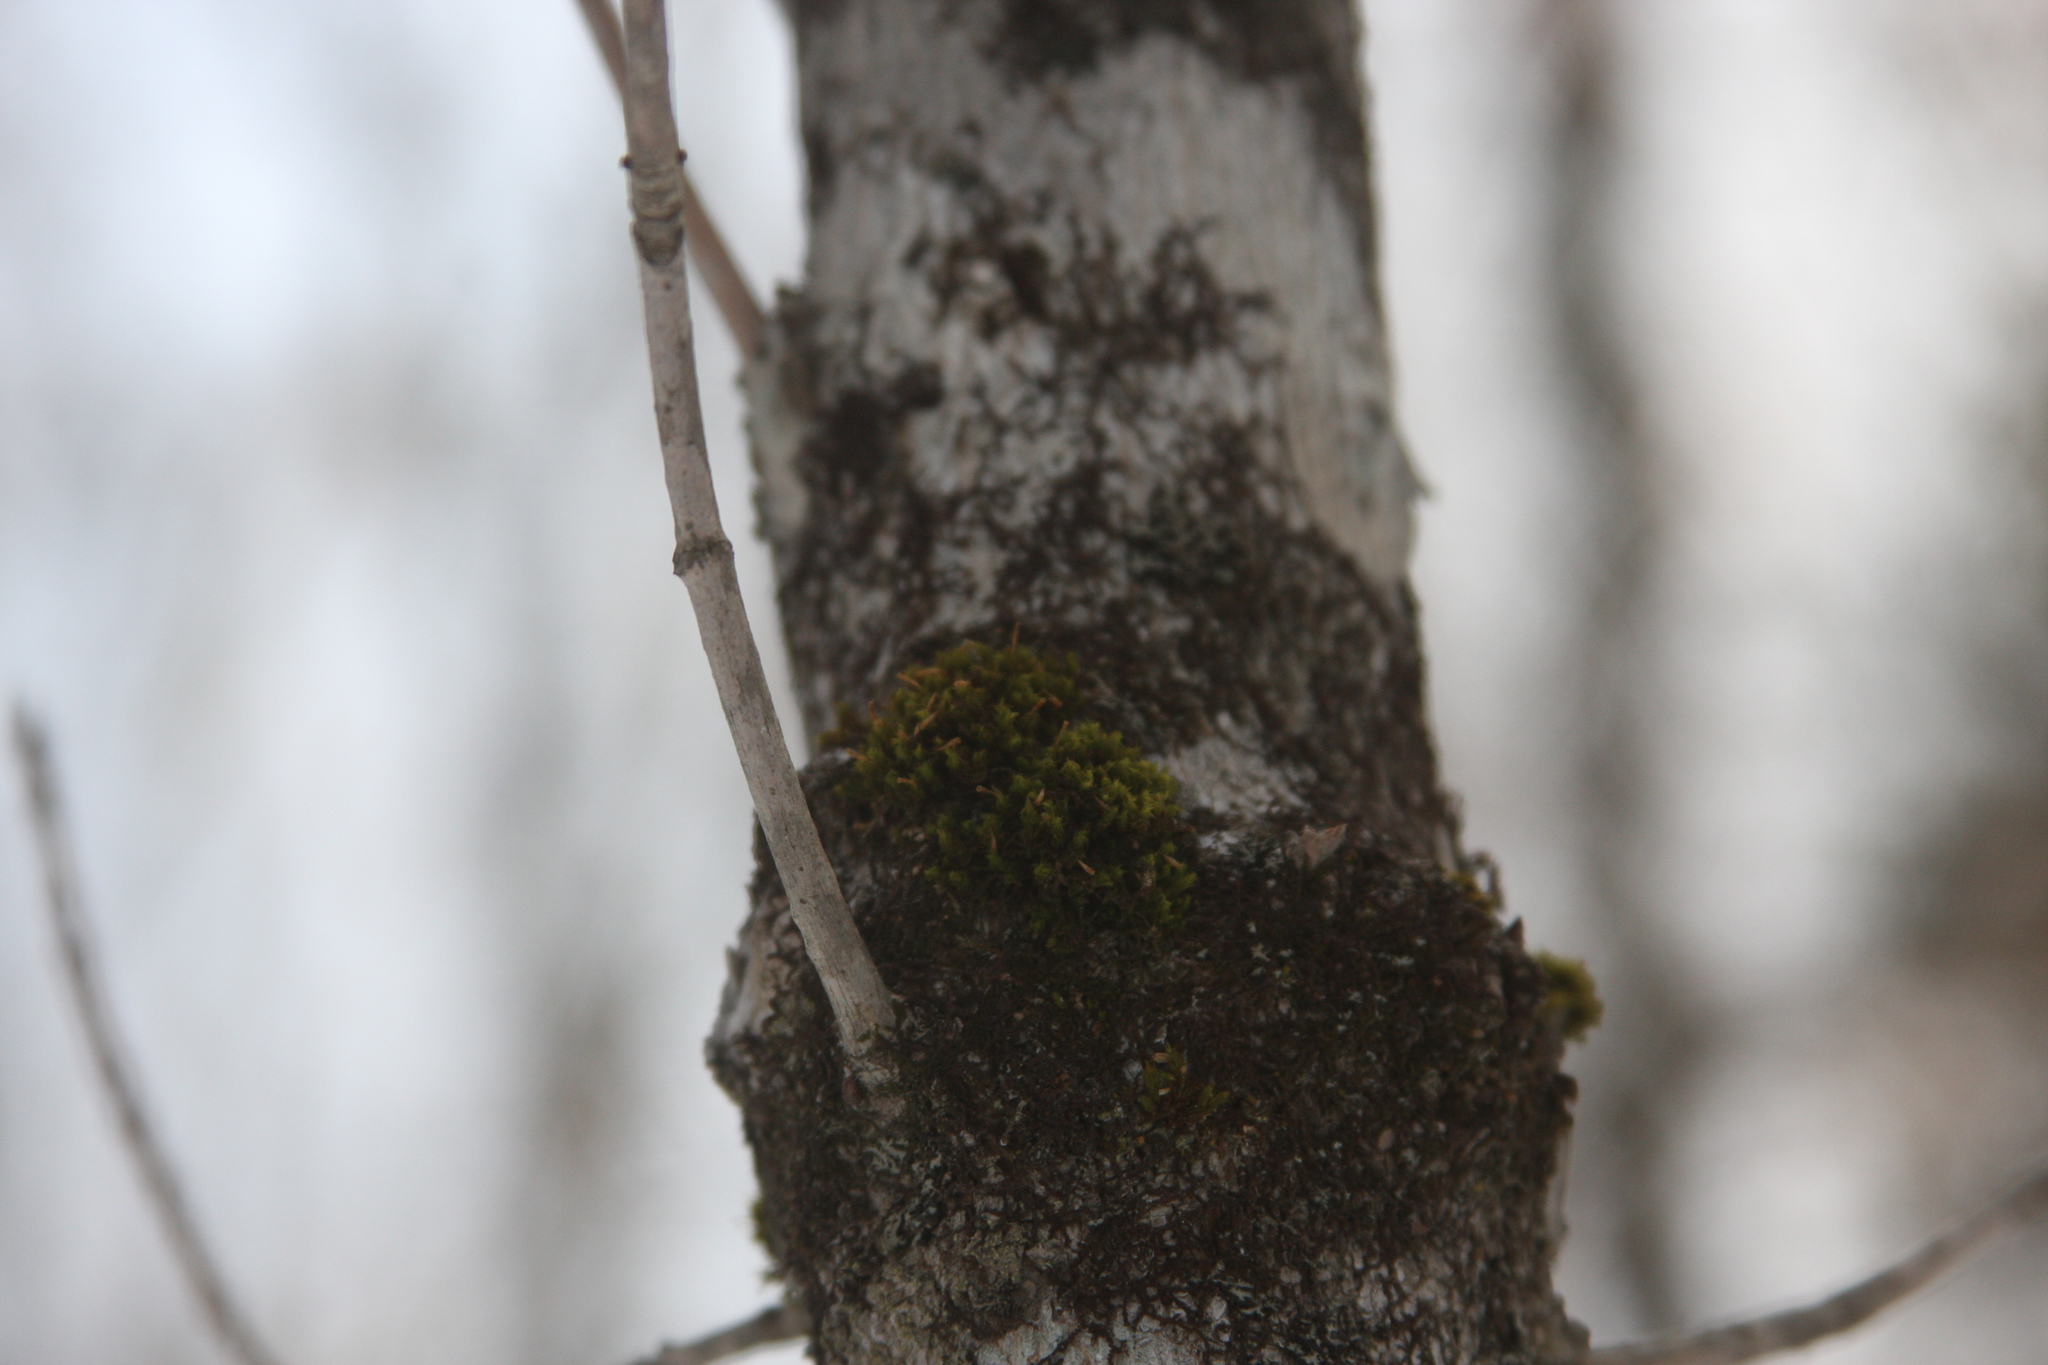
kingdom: Plantae
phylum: Bryophyta
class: Bryopsida
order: Orthotrichales
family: Orthotrichaceae
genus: Ulota
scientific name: Ulota crispa
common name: Crisped pincushion moss
